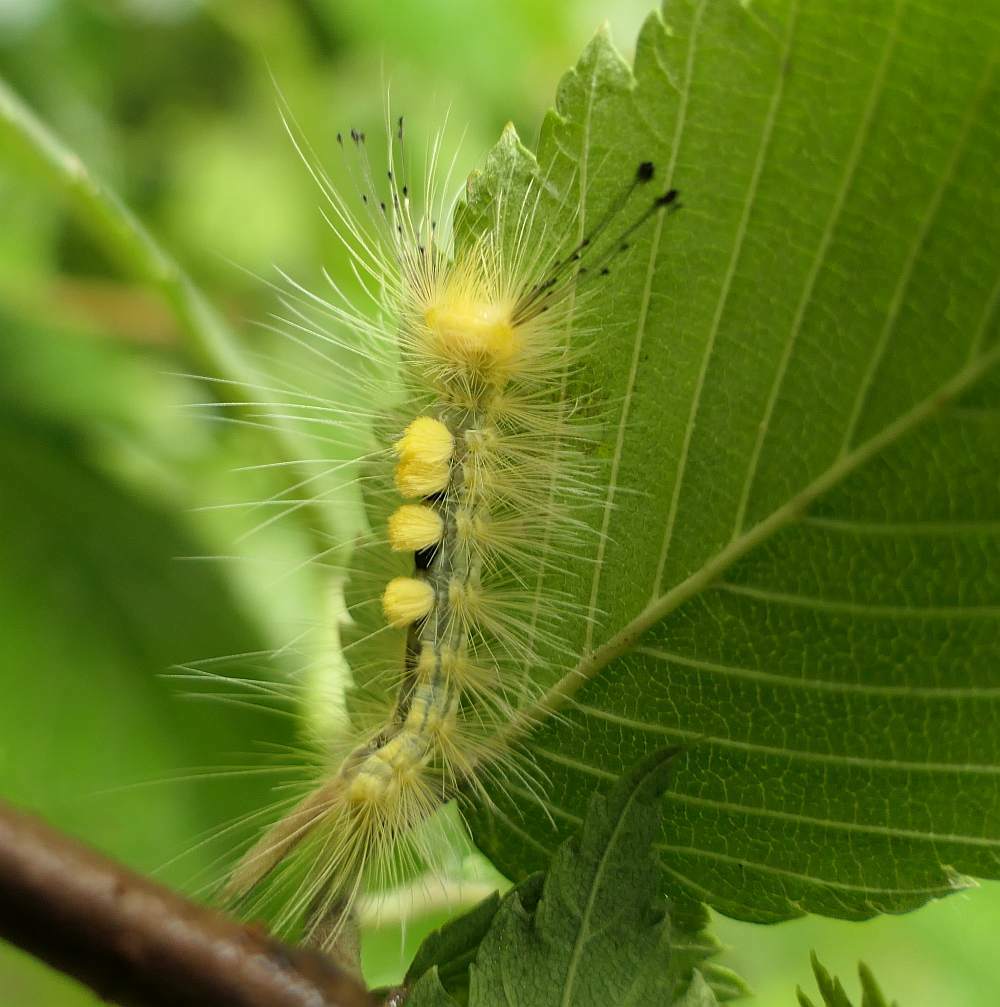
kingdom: Animalia
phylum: Arthropoda
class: Insecta
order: Lepidoptera
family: Erebidae
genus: Orgyia
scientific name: Orgyia definita
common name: Definite tussock moth
